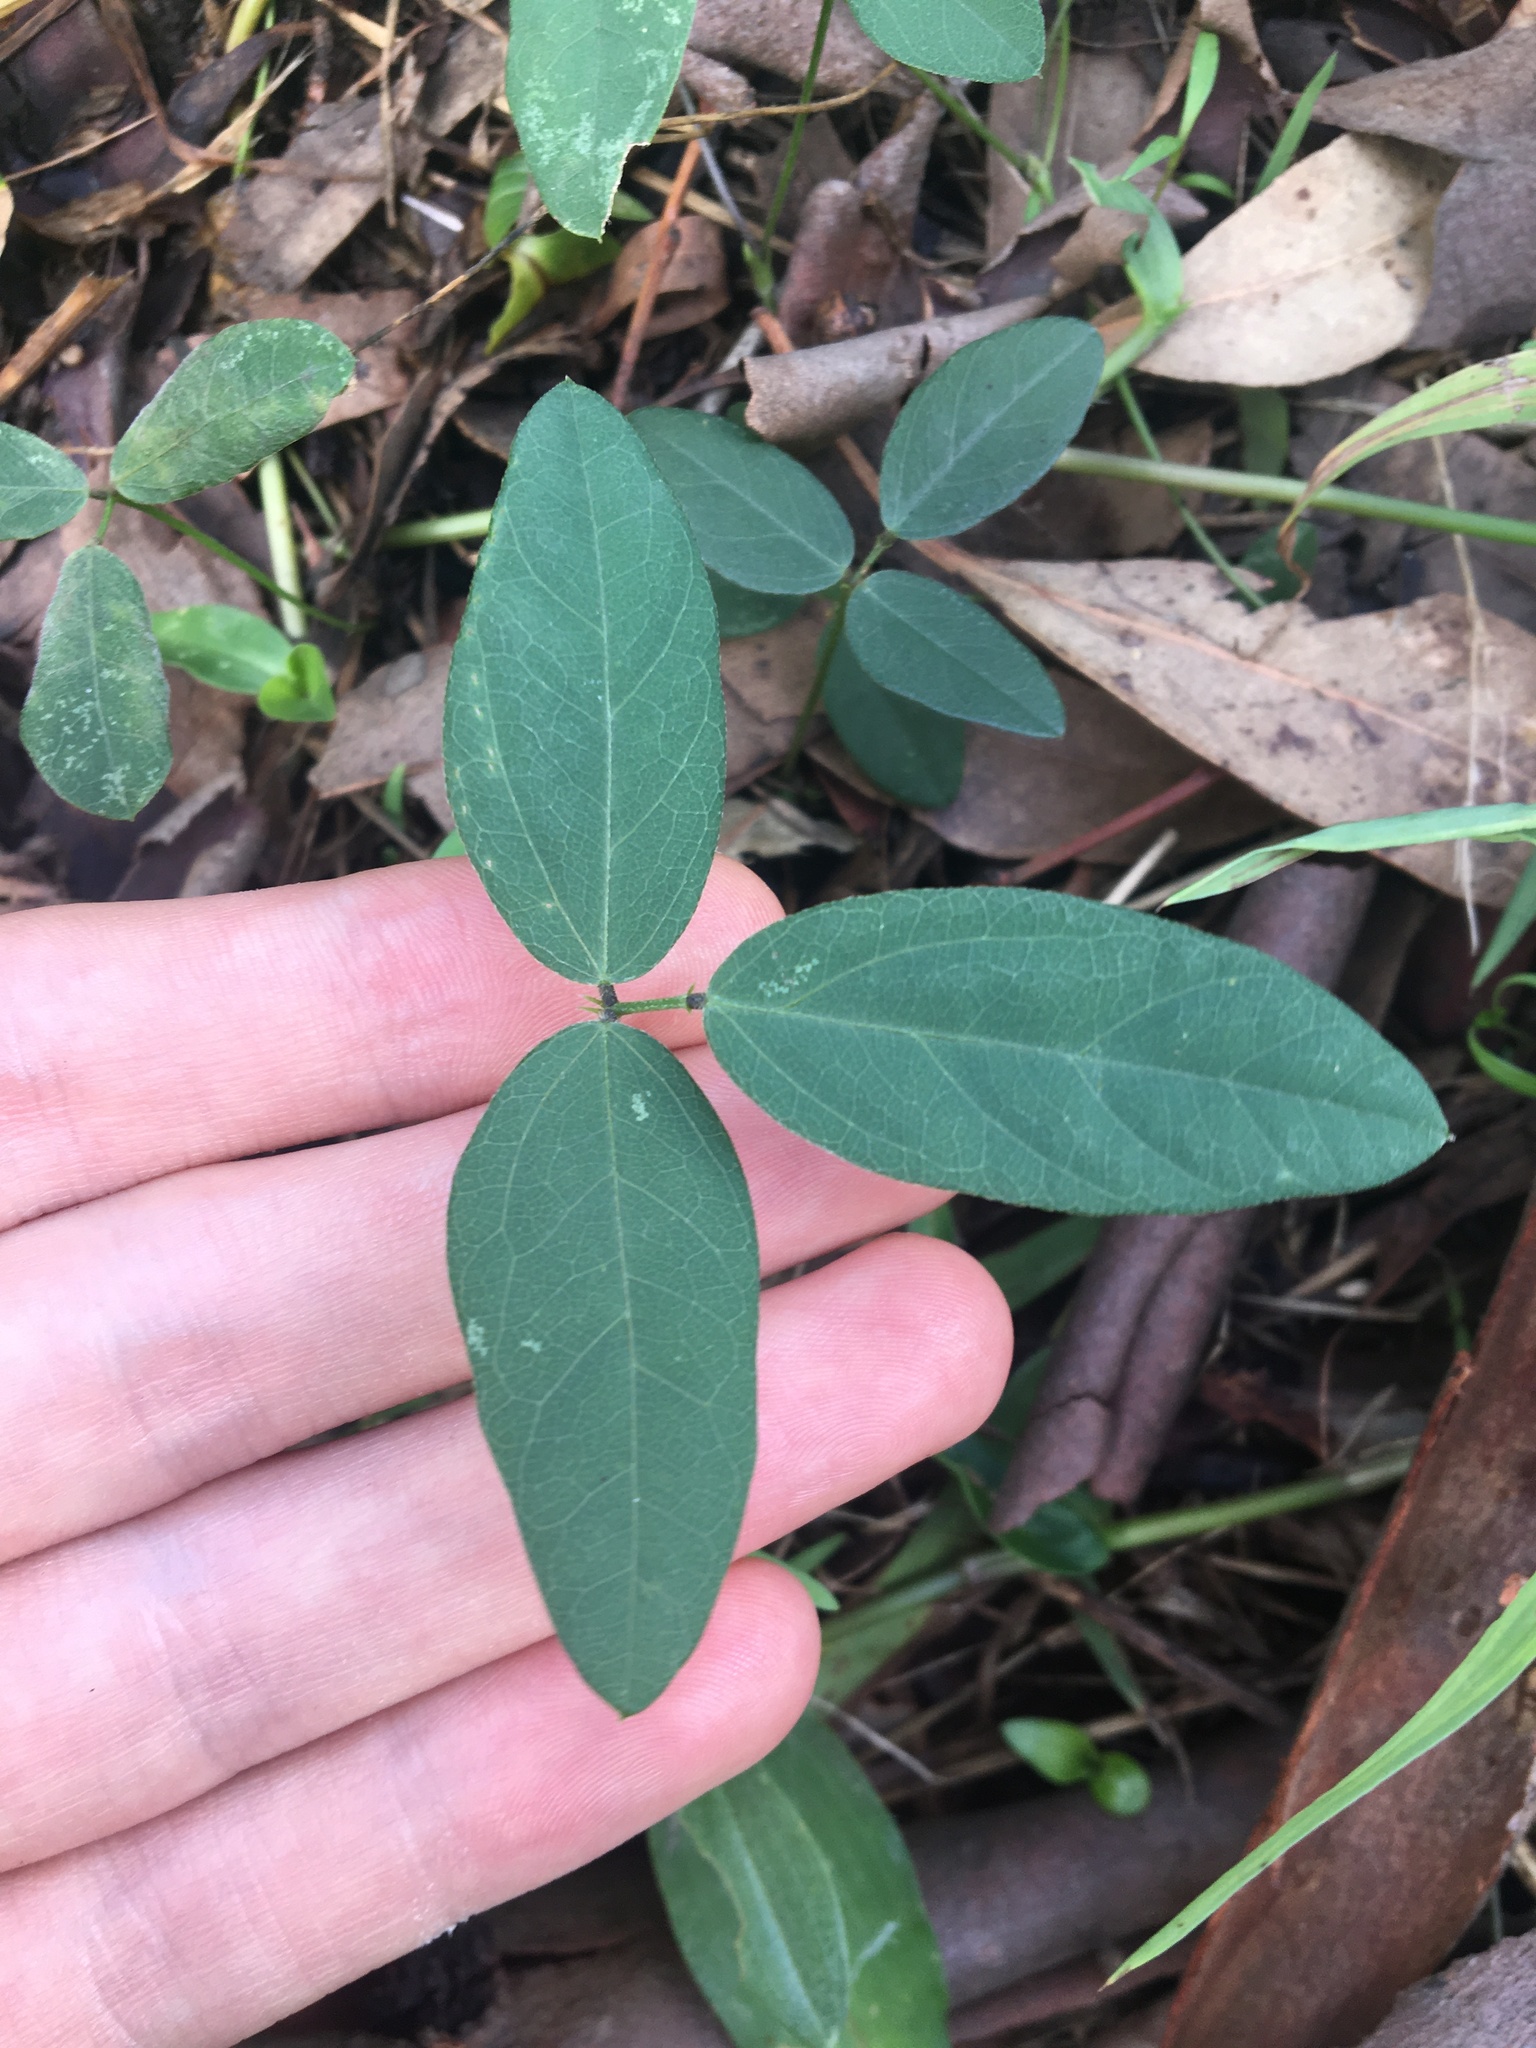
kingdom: Plantae
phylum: Tracheophyta
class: Magnoliopsida
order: Fabales
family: Fabaceae
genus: Glycine
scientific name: Glycine tabacina
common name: Pea glycine
